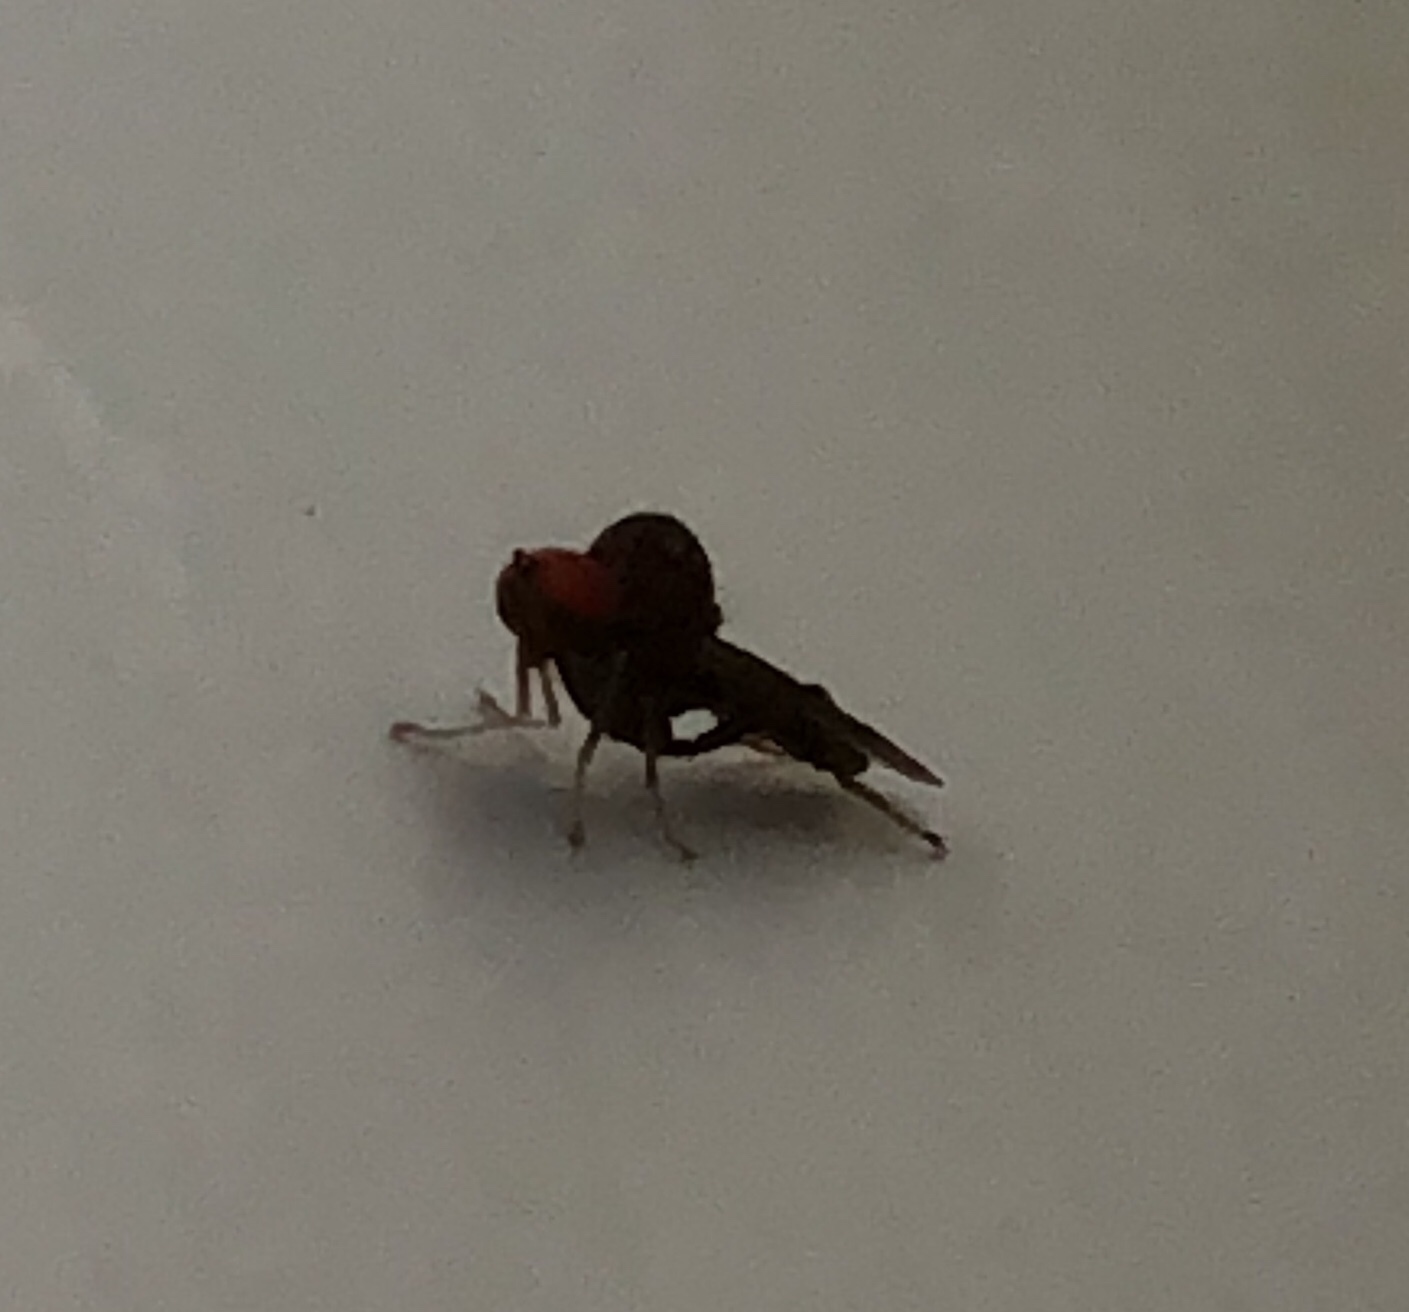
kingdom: Animalia
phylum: Arthropoda
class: Insecta
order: Diptera
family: Hybotidae
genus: Syneches
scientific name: Syneches simplex
